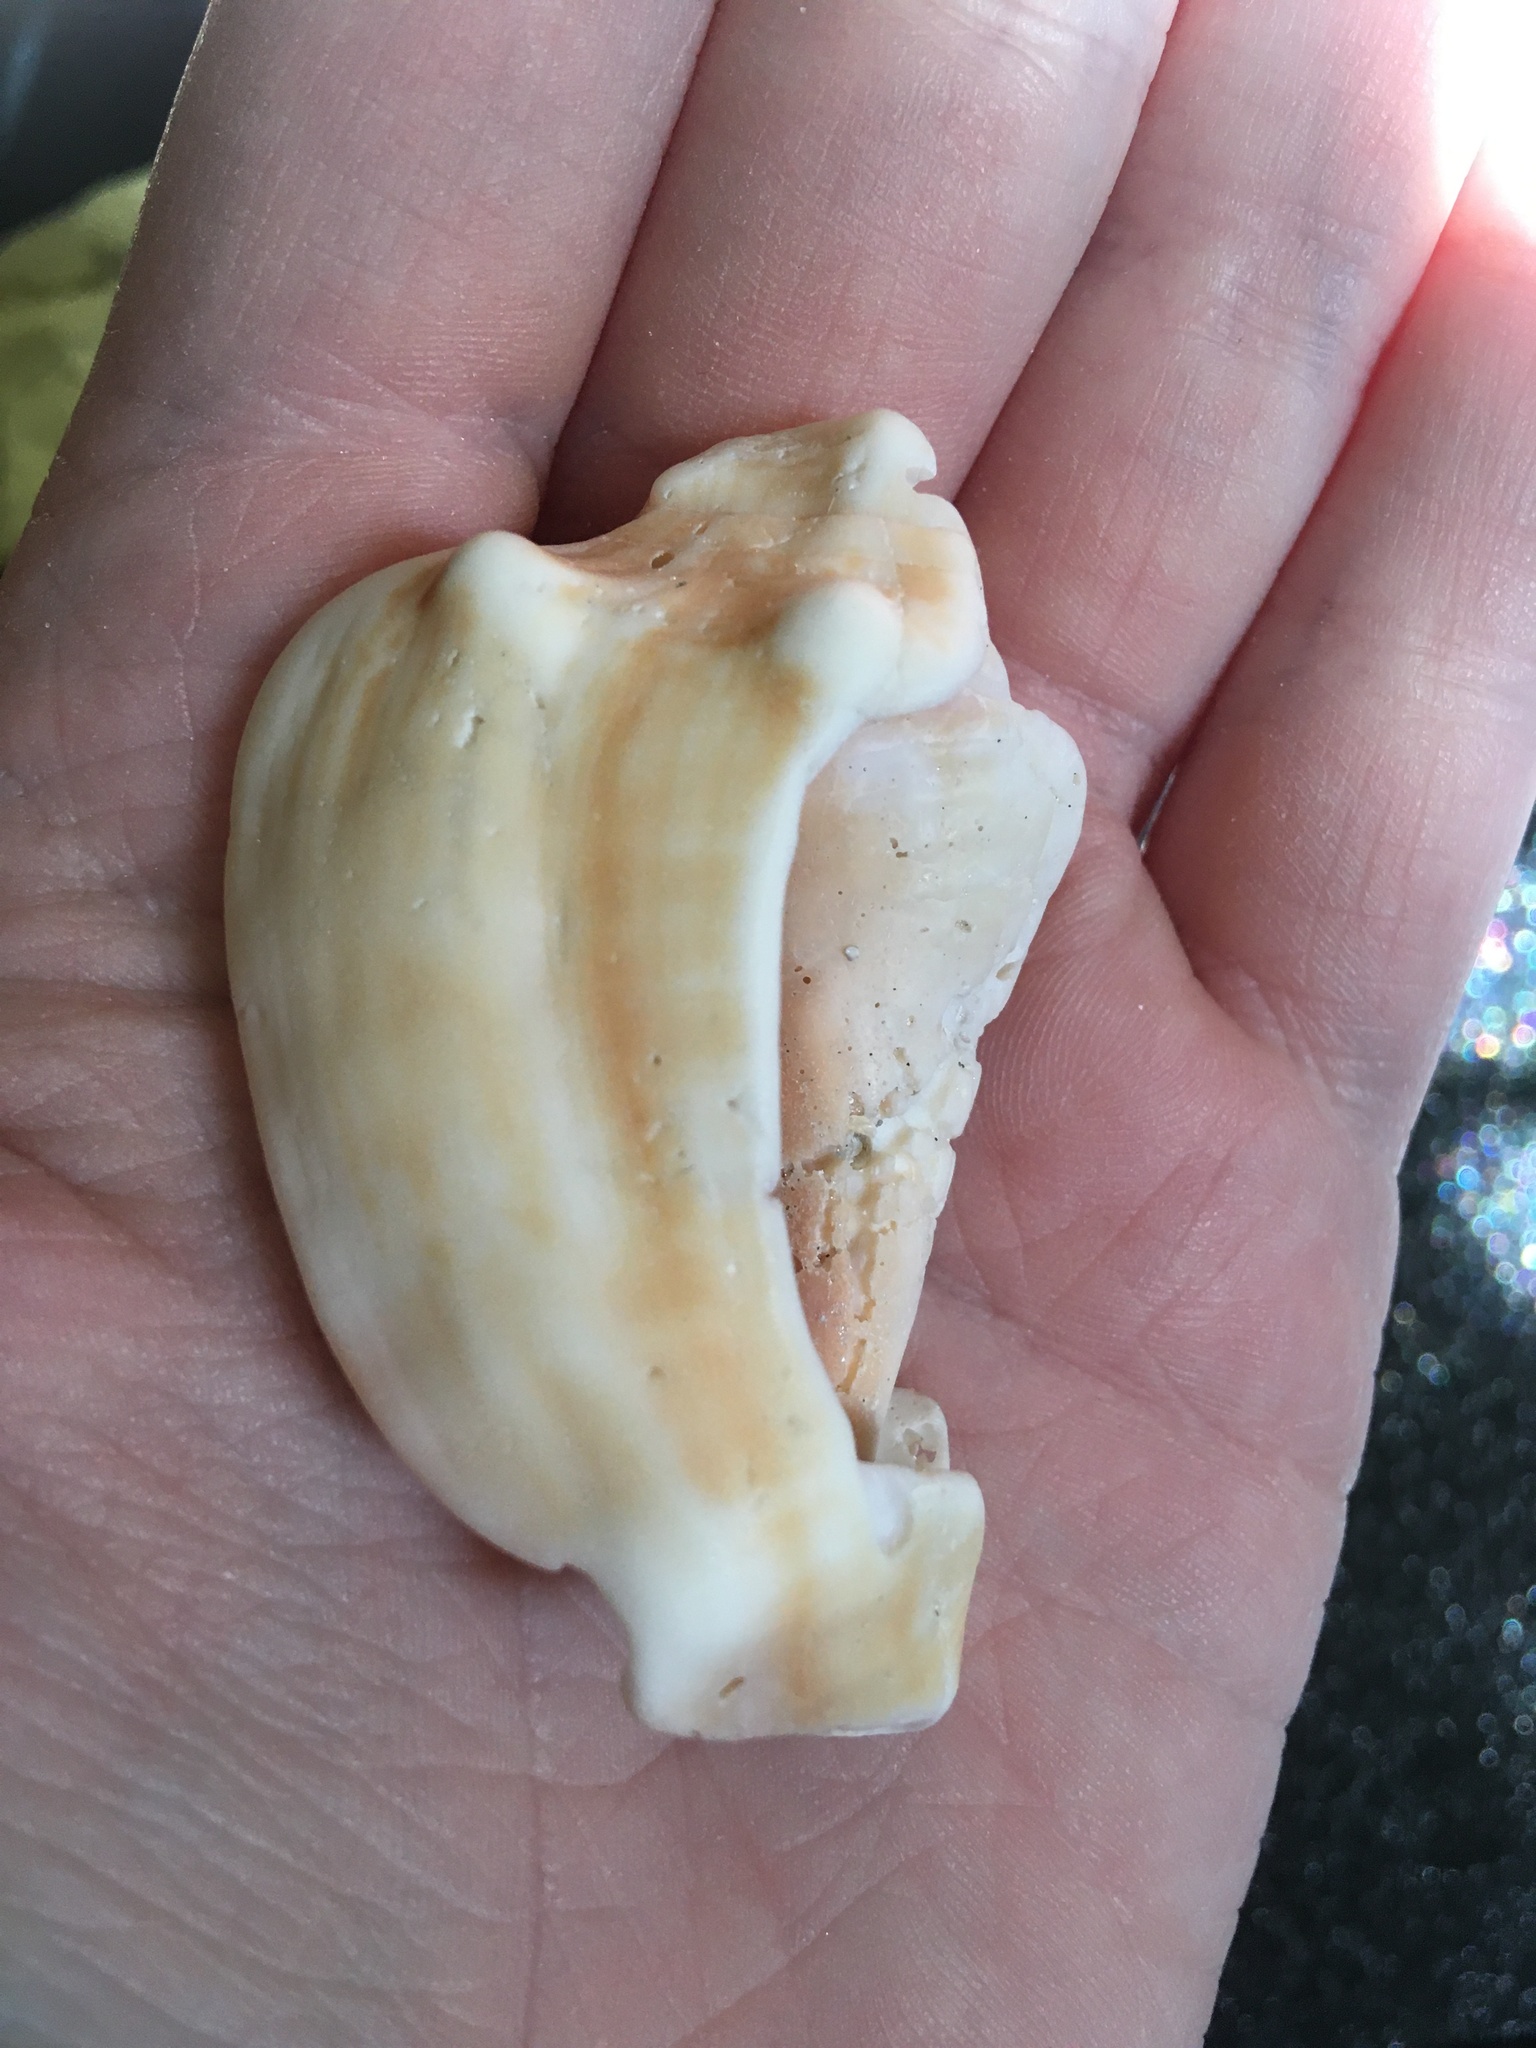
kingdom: Animalia
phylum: Mollusca
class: Gastropoda
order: Littorinimorpha
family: Strombidae
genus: Strombus
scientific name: Strombus alatus
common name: Florida fighting conch
